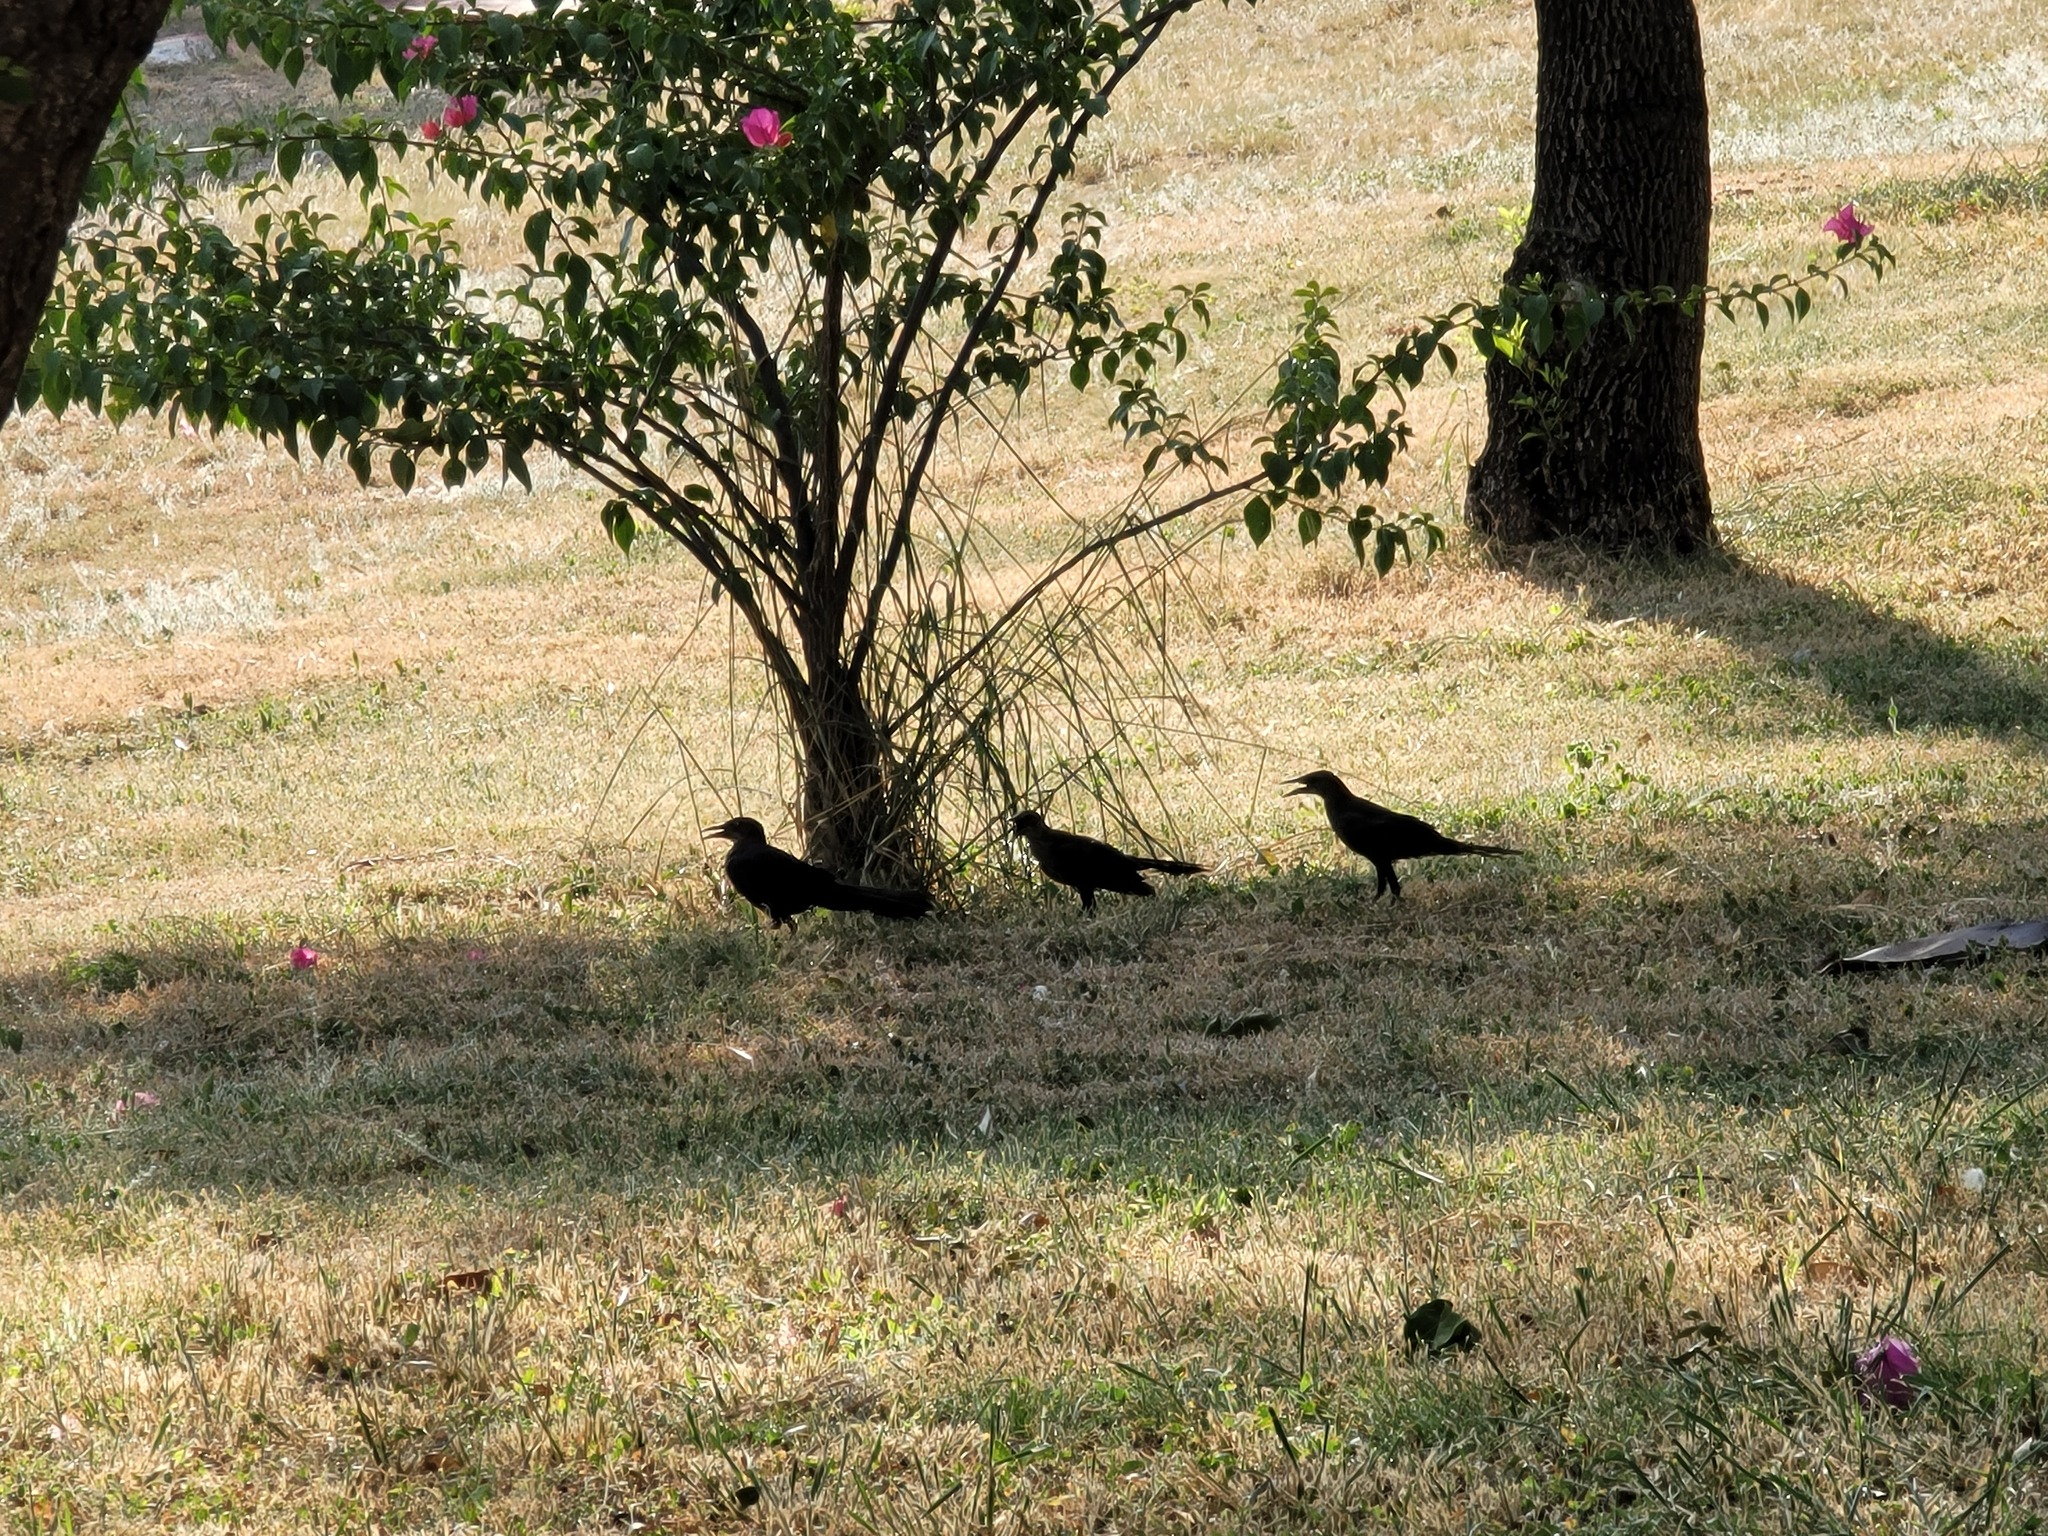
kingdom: Animalia
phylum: Chordata
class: Aves
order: Passeriformes
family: Icteridae
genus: Quiscalus
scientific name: Quiscalus mexicanus
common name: Great-tailed grackle
